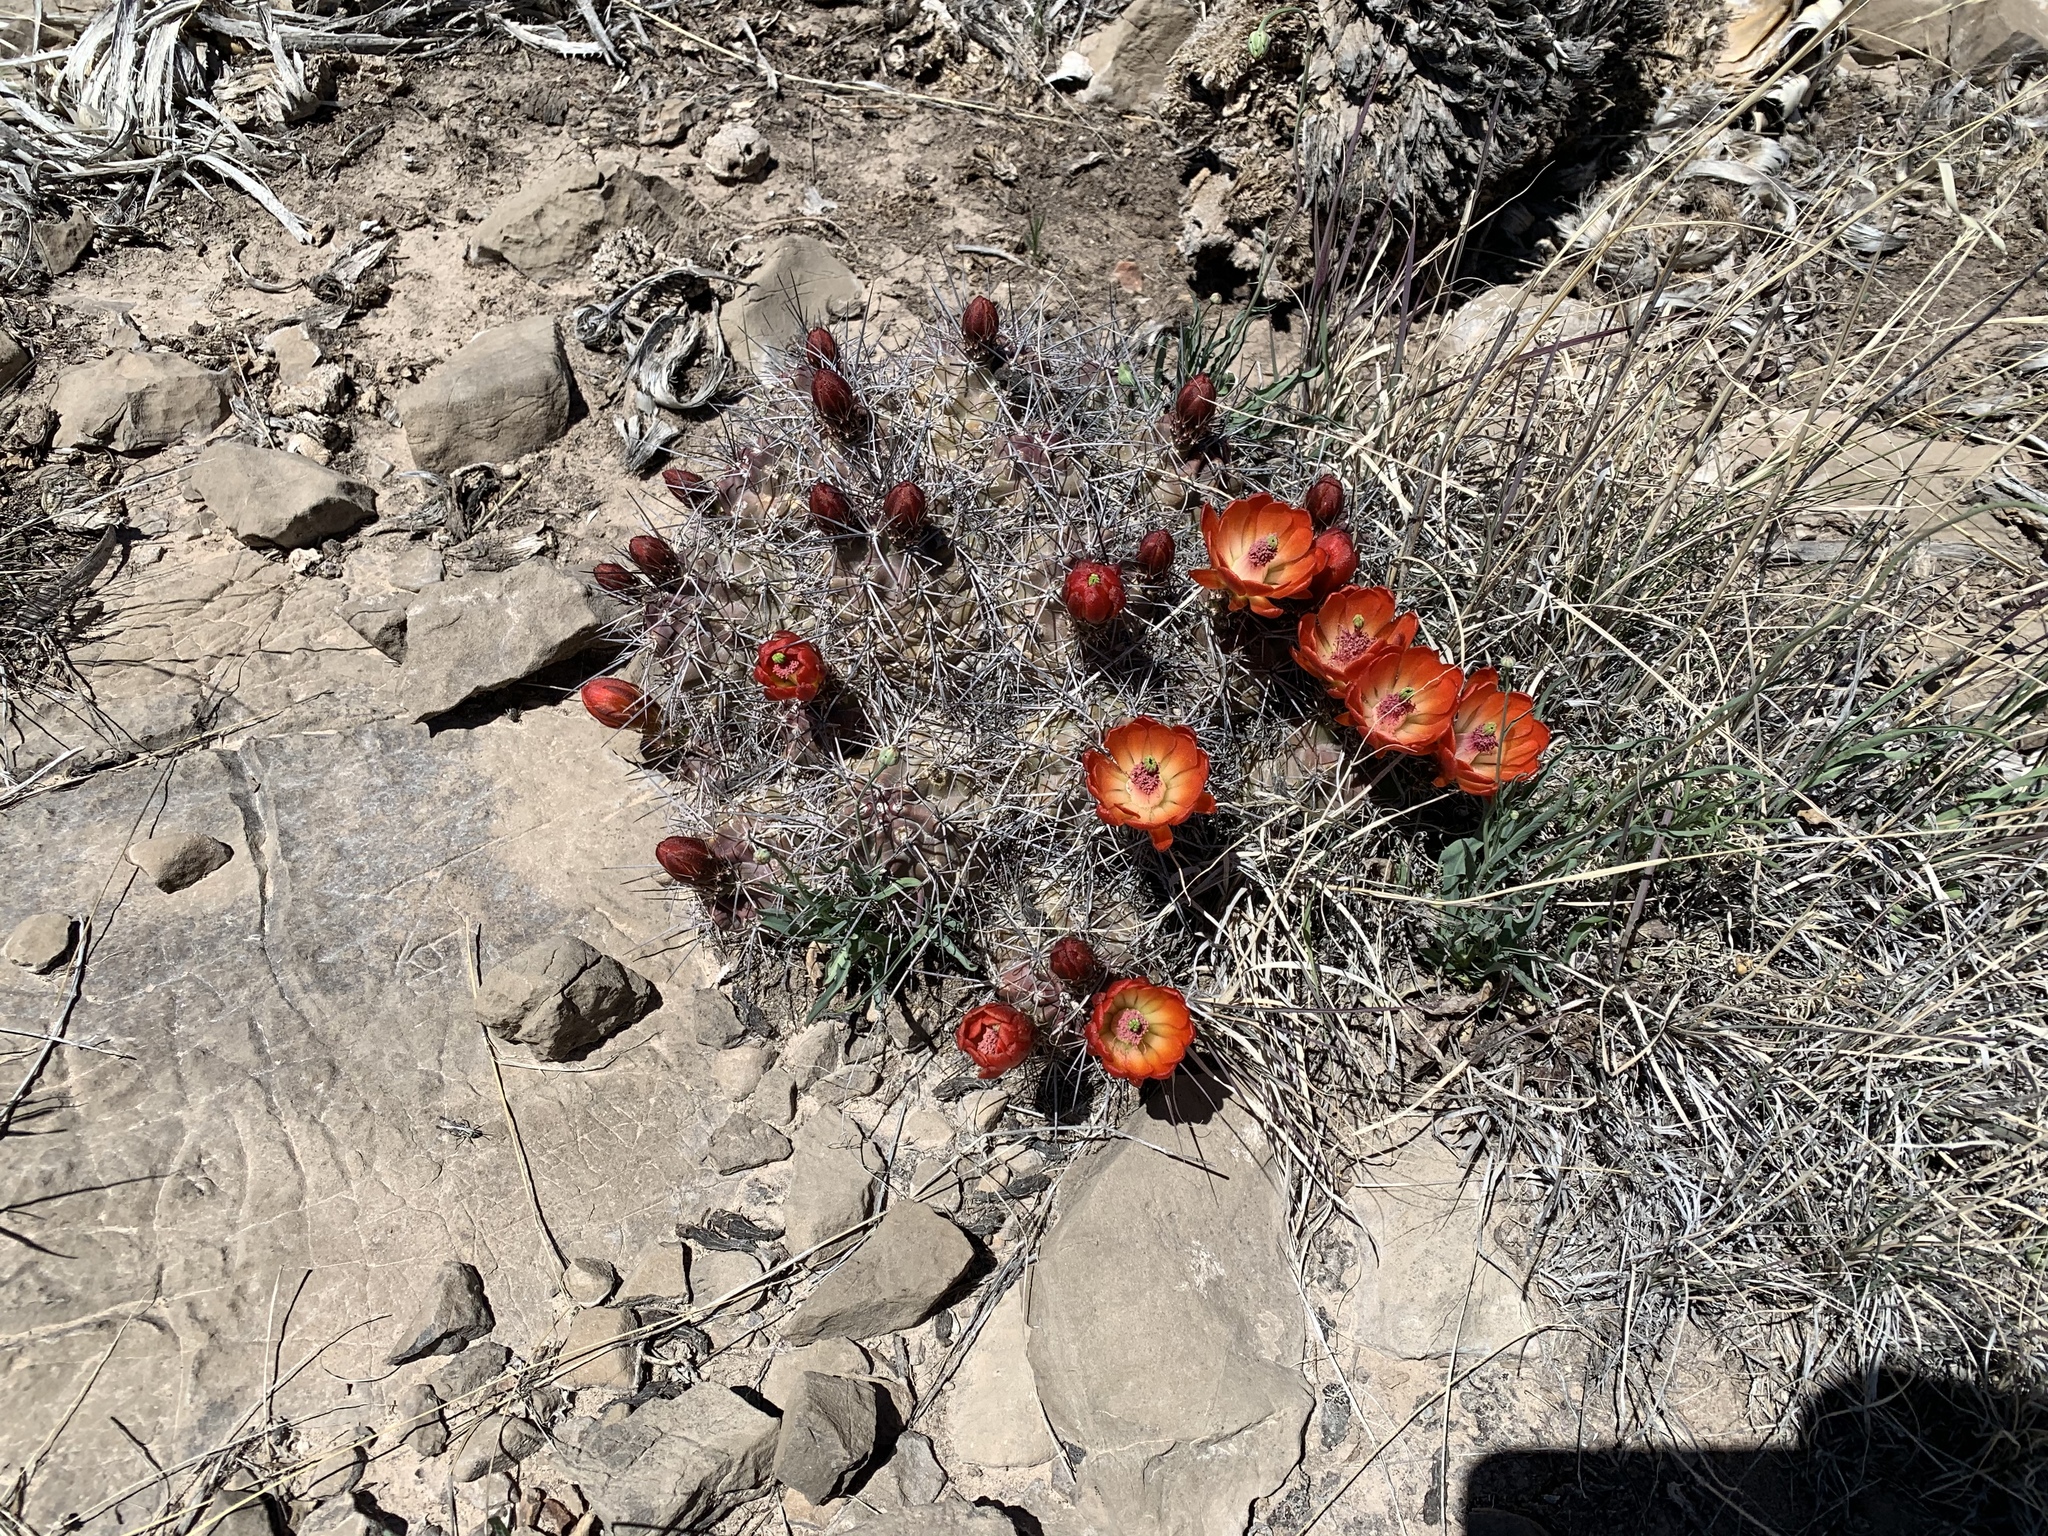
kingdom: Plantae
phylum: Tracheophyta
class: Magnoliopsida
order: Caryophyllales
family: Cactaceae
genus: Echinocereus
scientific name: Echinocereus coccineus
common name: Scarlet hedgehog cactus
